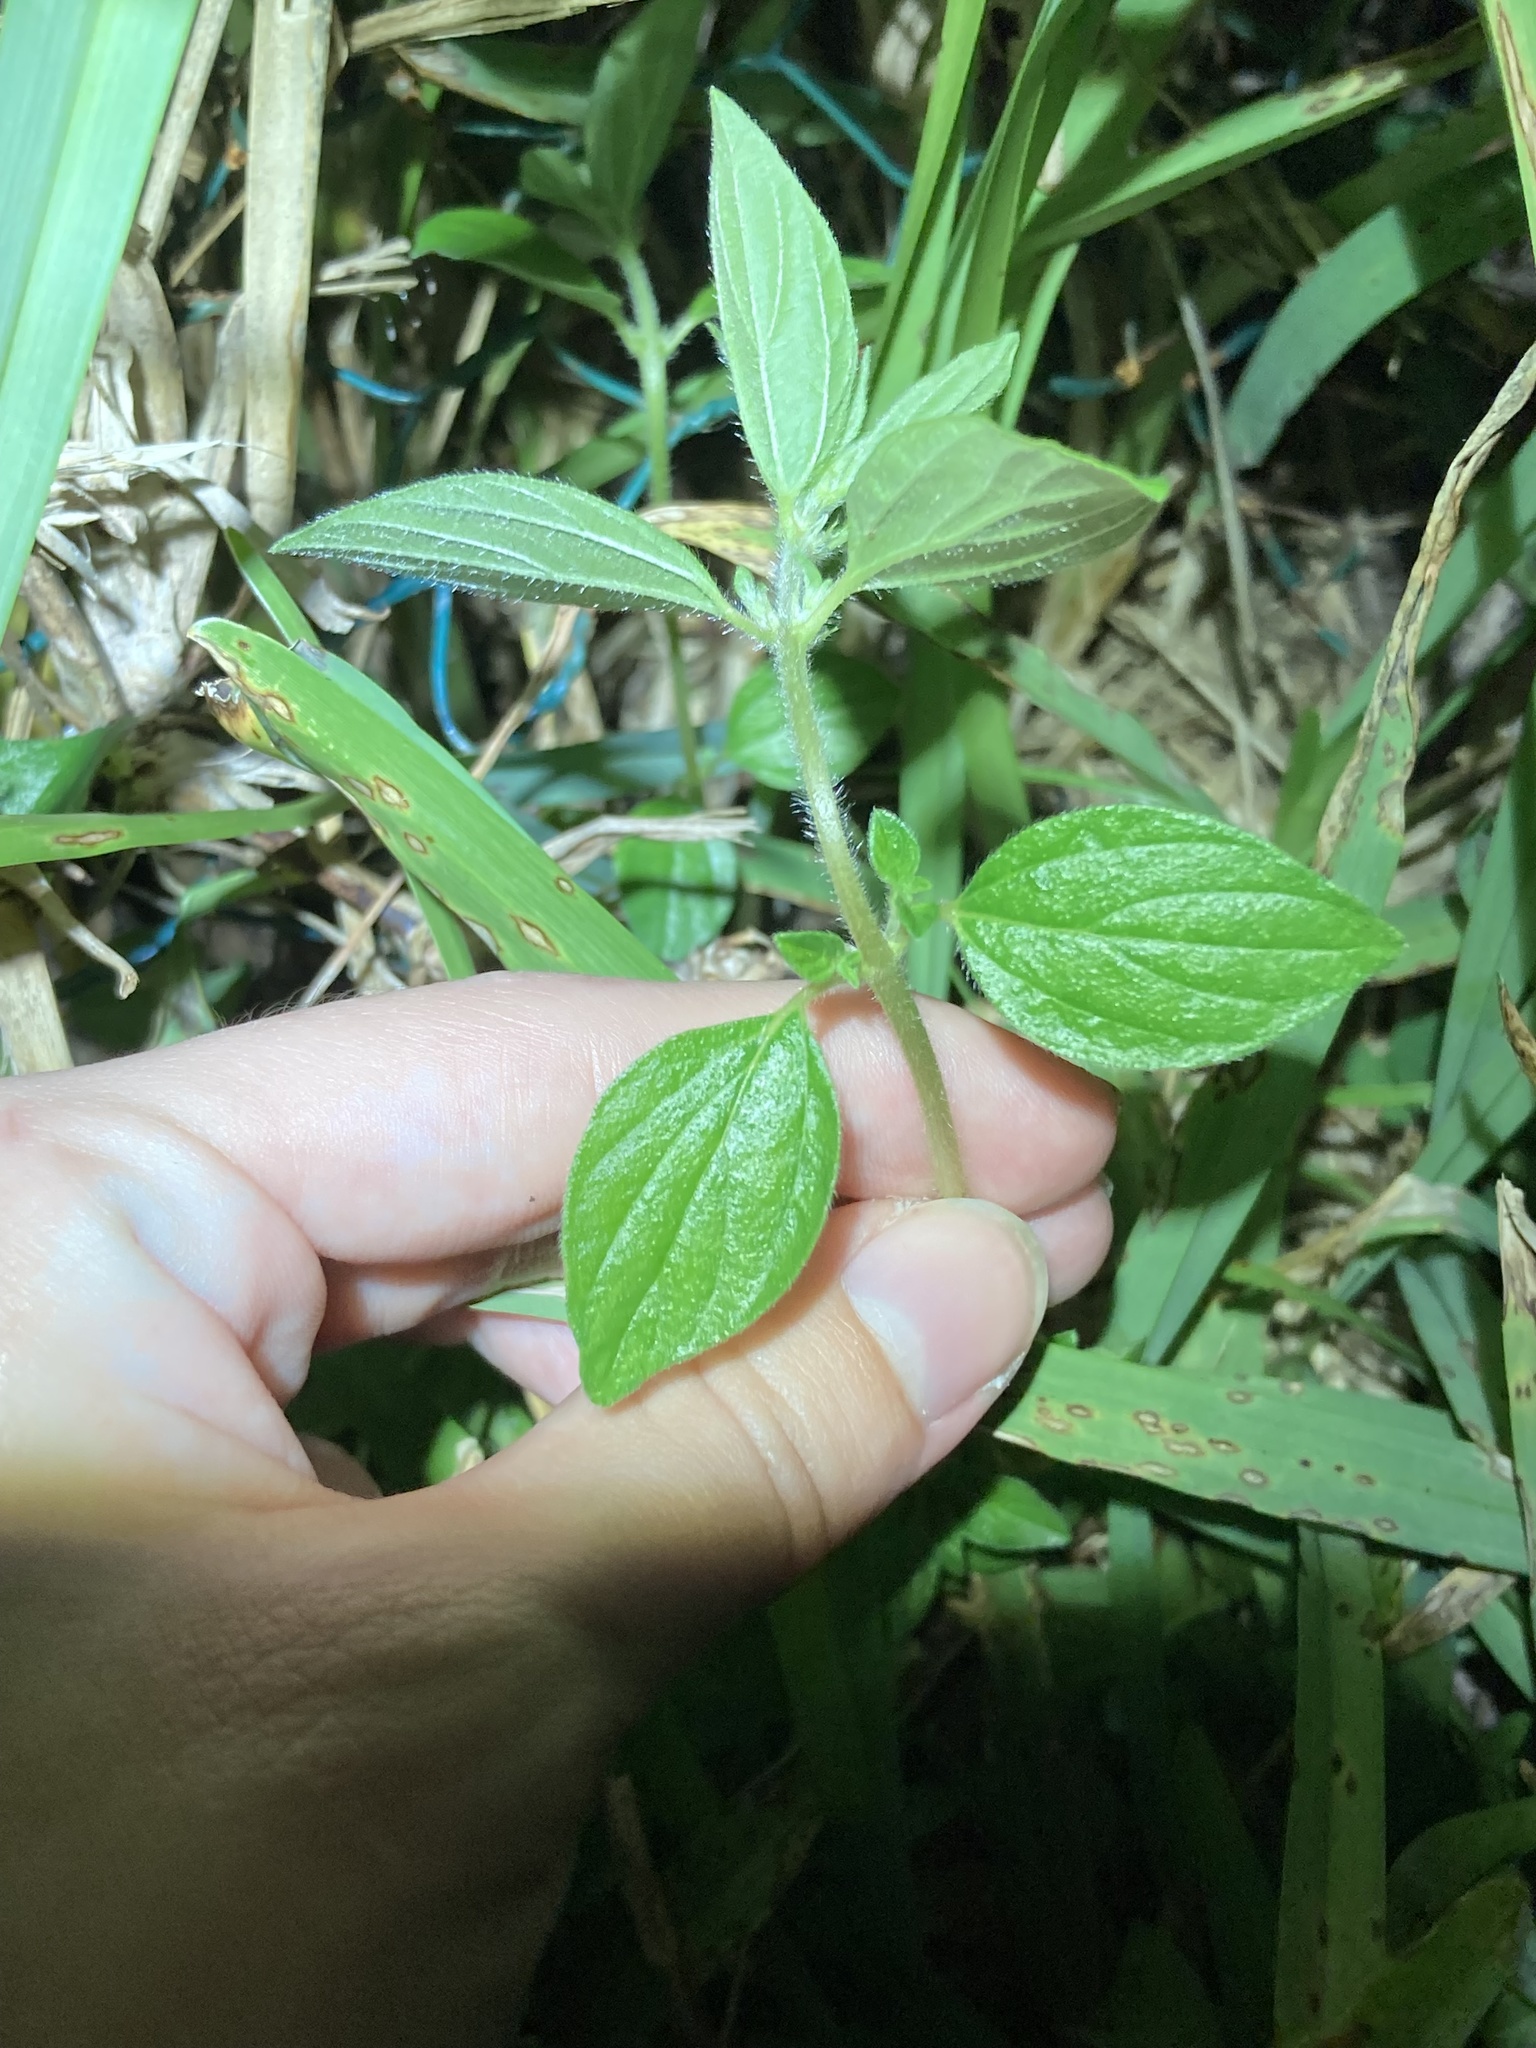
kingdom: Plantae
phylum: Tracheophyta
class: Magnoliopsida
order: Rosales
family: Urticaceae
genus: Pouzolzia
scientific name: Pouzolzia zeylanica
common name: Graceful pouzolzsbush
